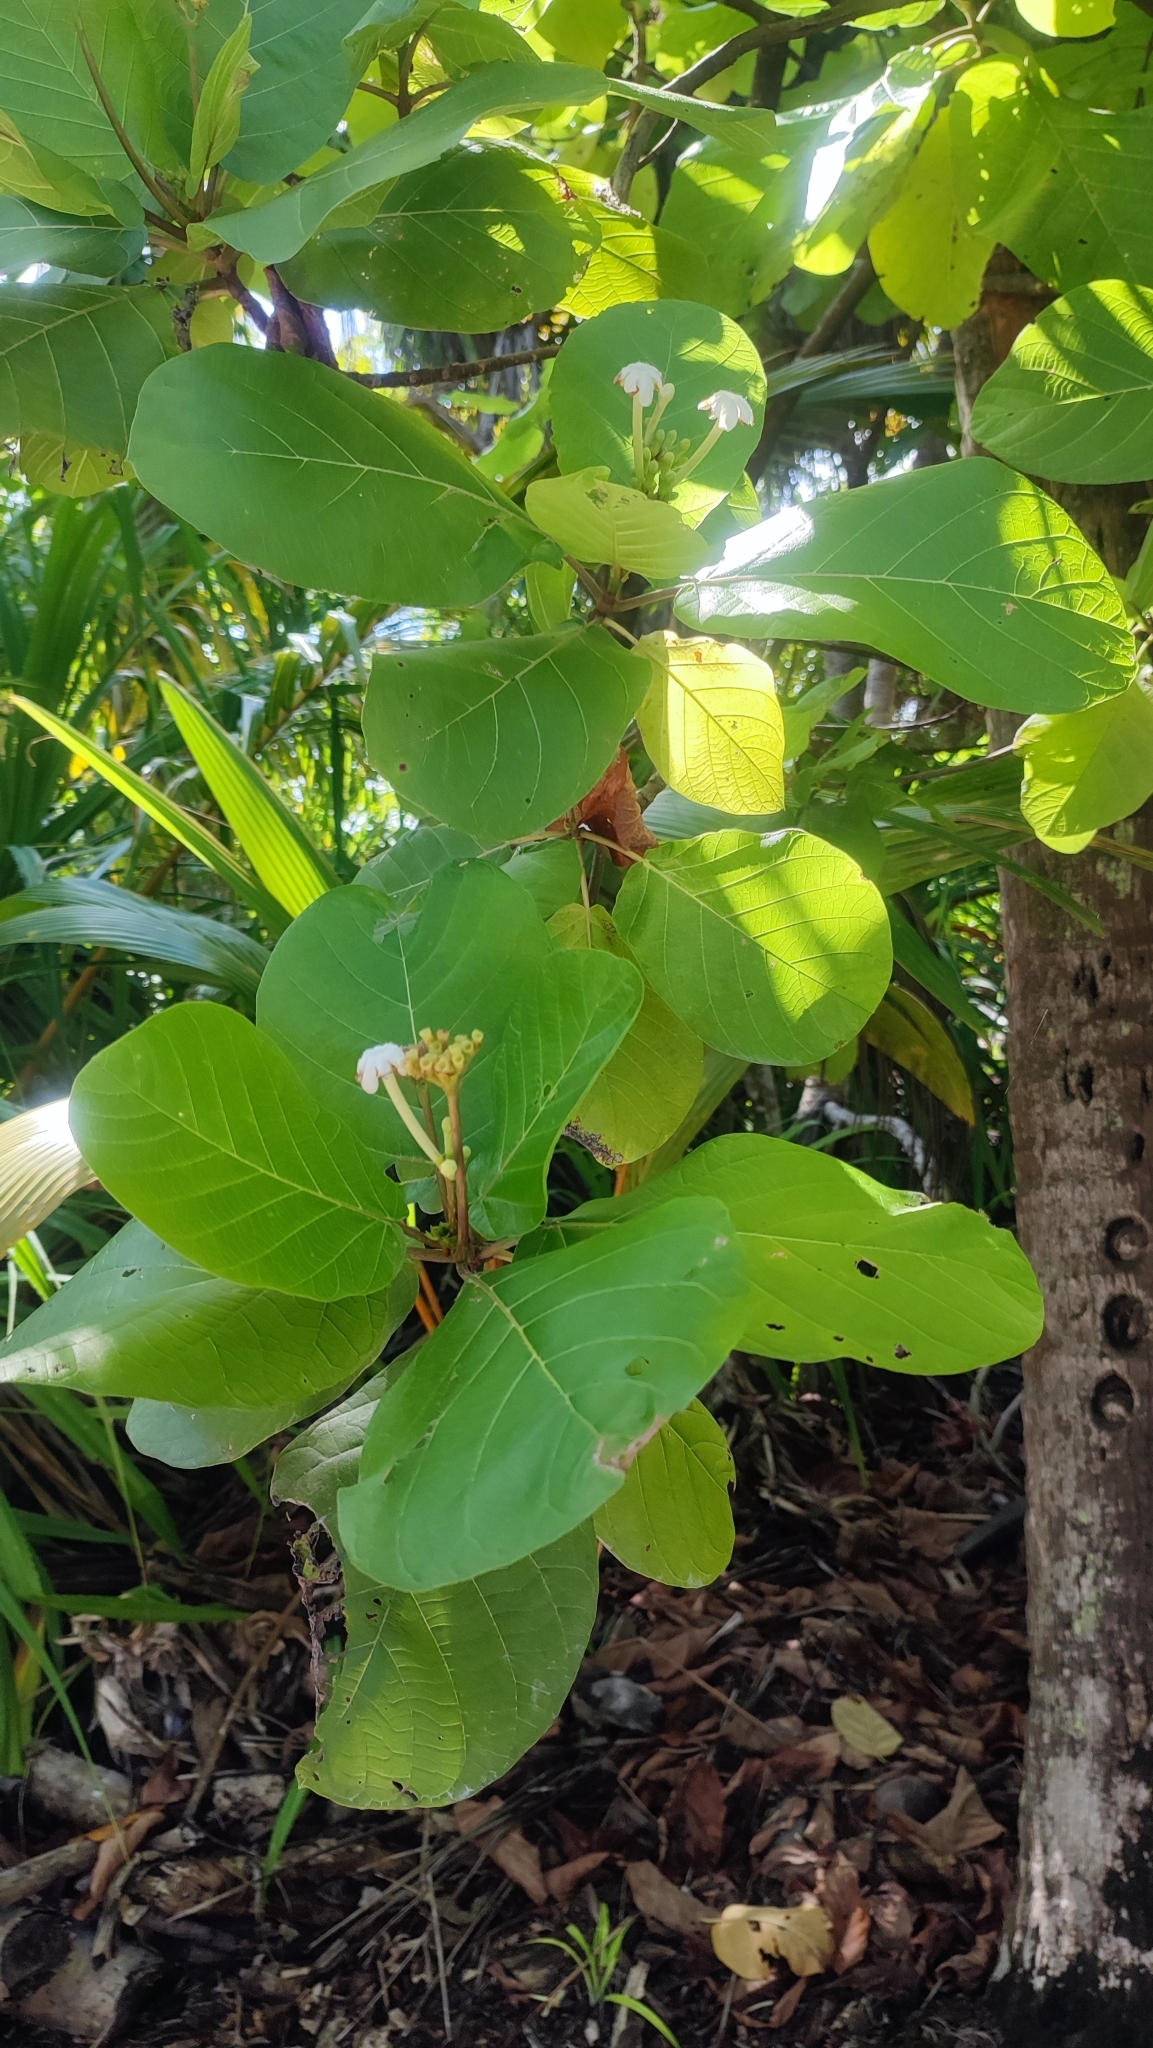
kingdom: Plantae
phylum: Tracheophyta
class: Magnoliopsida
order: Gentianales
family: Rubiaceae
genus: Guettarda
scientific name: Guettarda speciosa
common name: Sea randa
